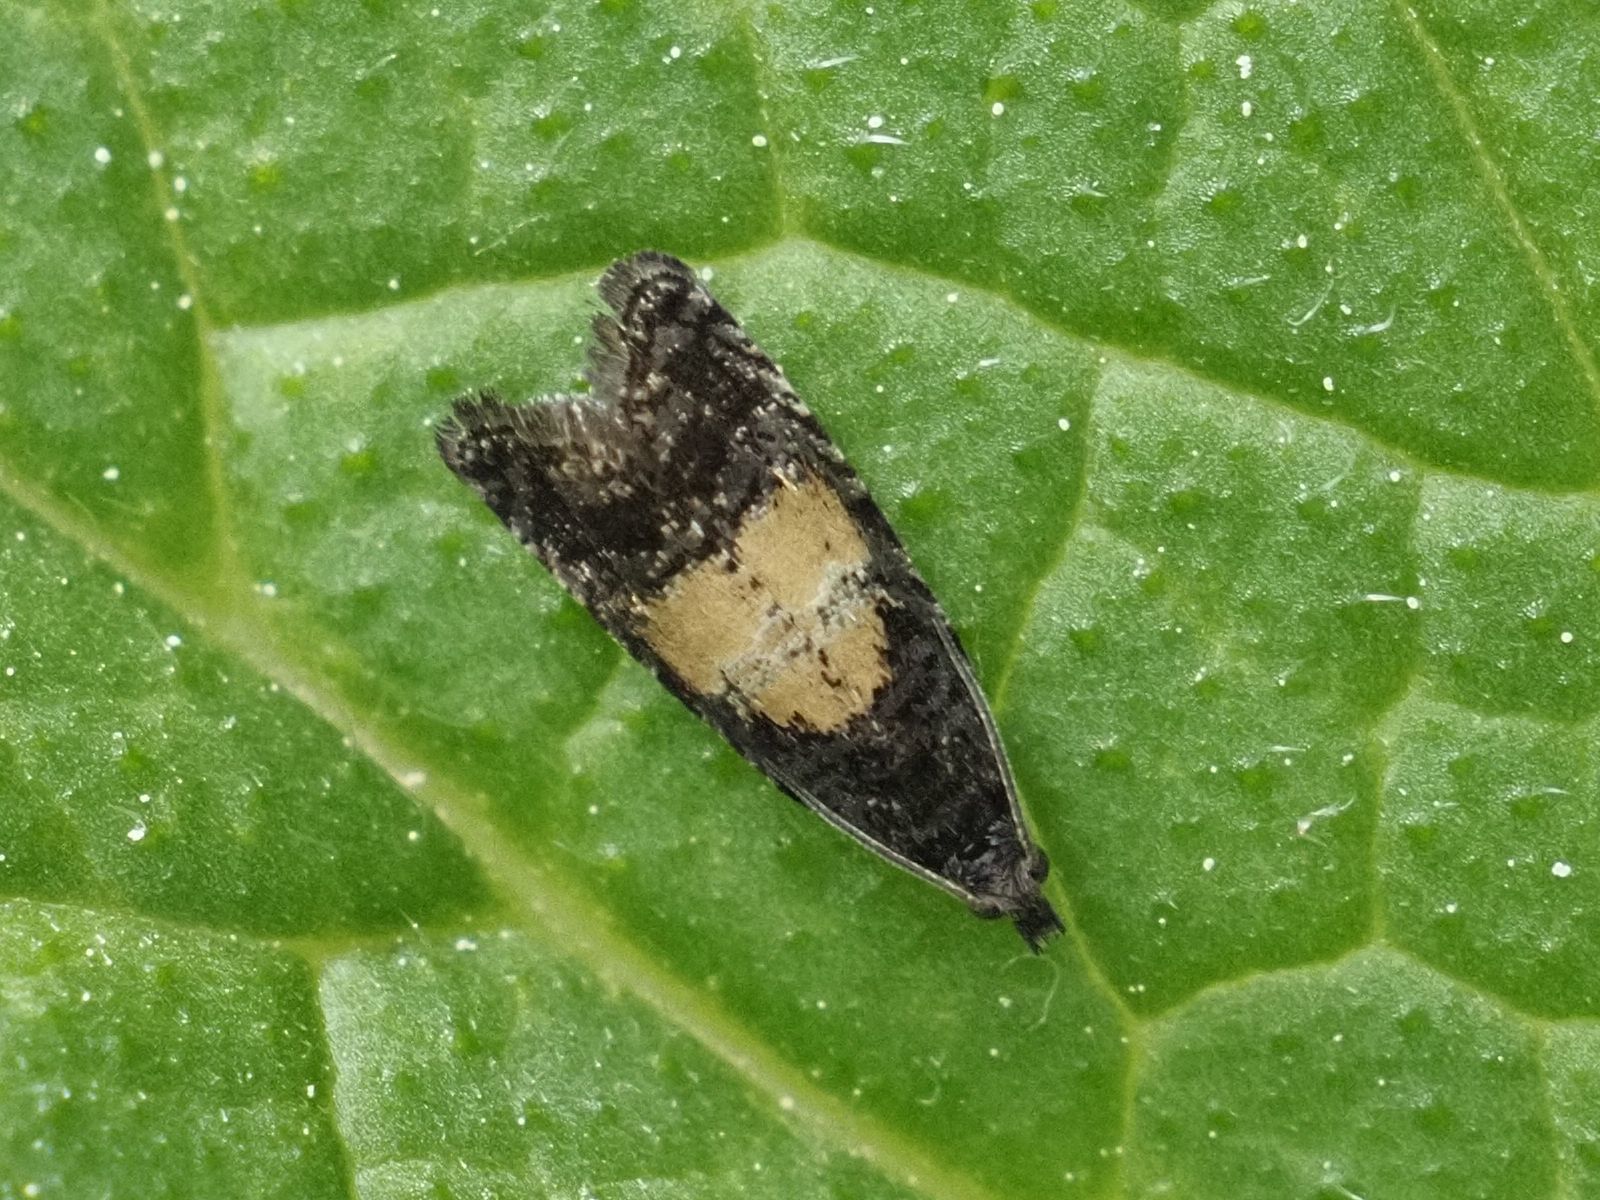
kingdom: Animalia
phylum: Arthropoda
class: Insecta
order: Lepidoptera
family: Tortricidae
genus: Endothenia
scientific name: Endothenia nigricostana
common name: Black-edged marble
